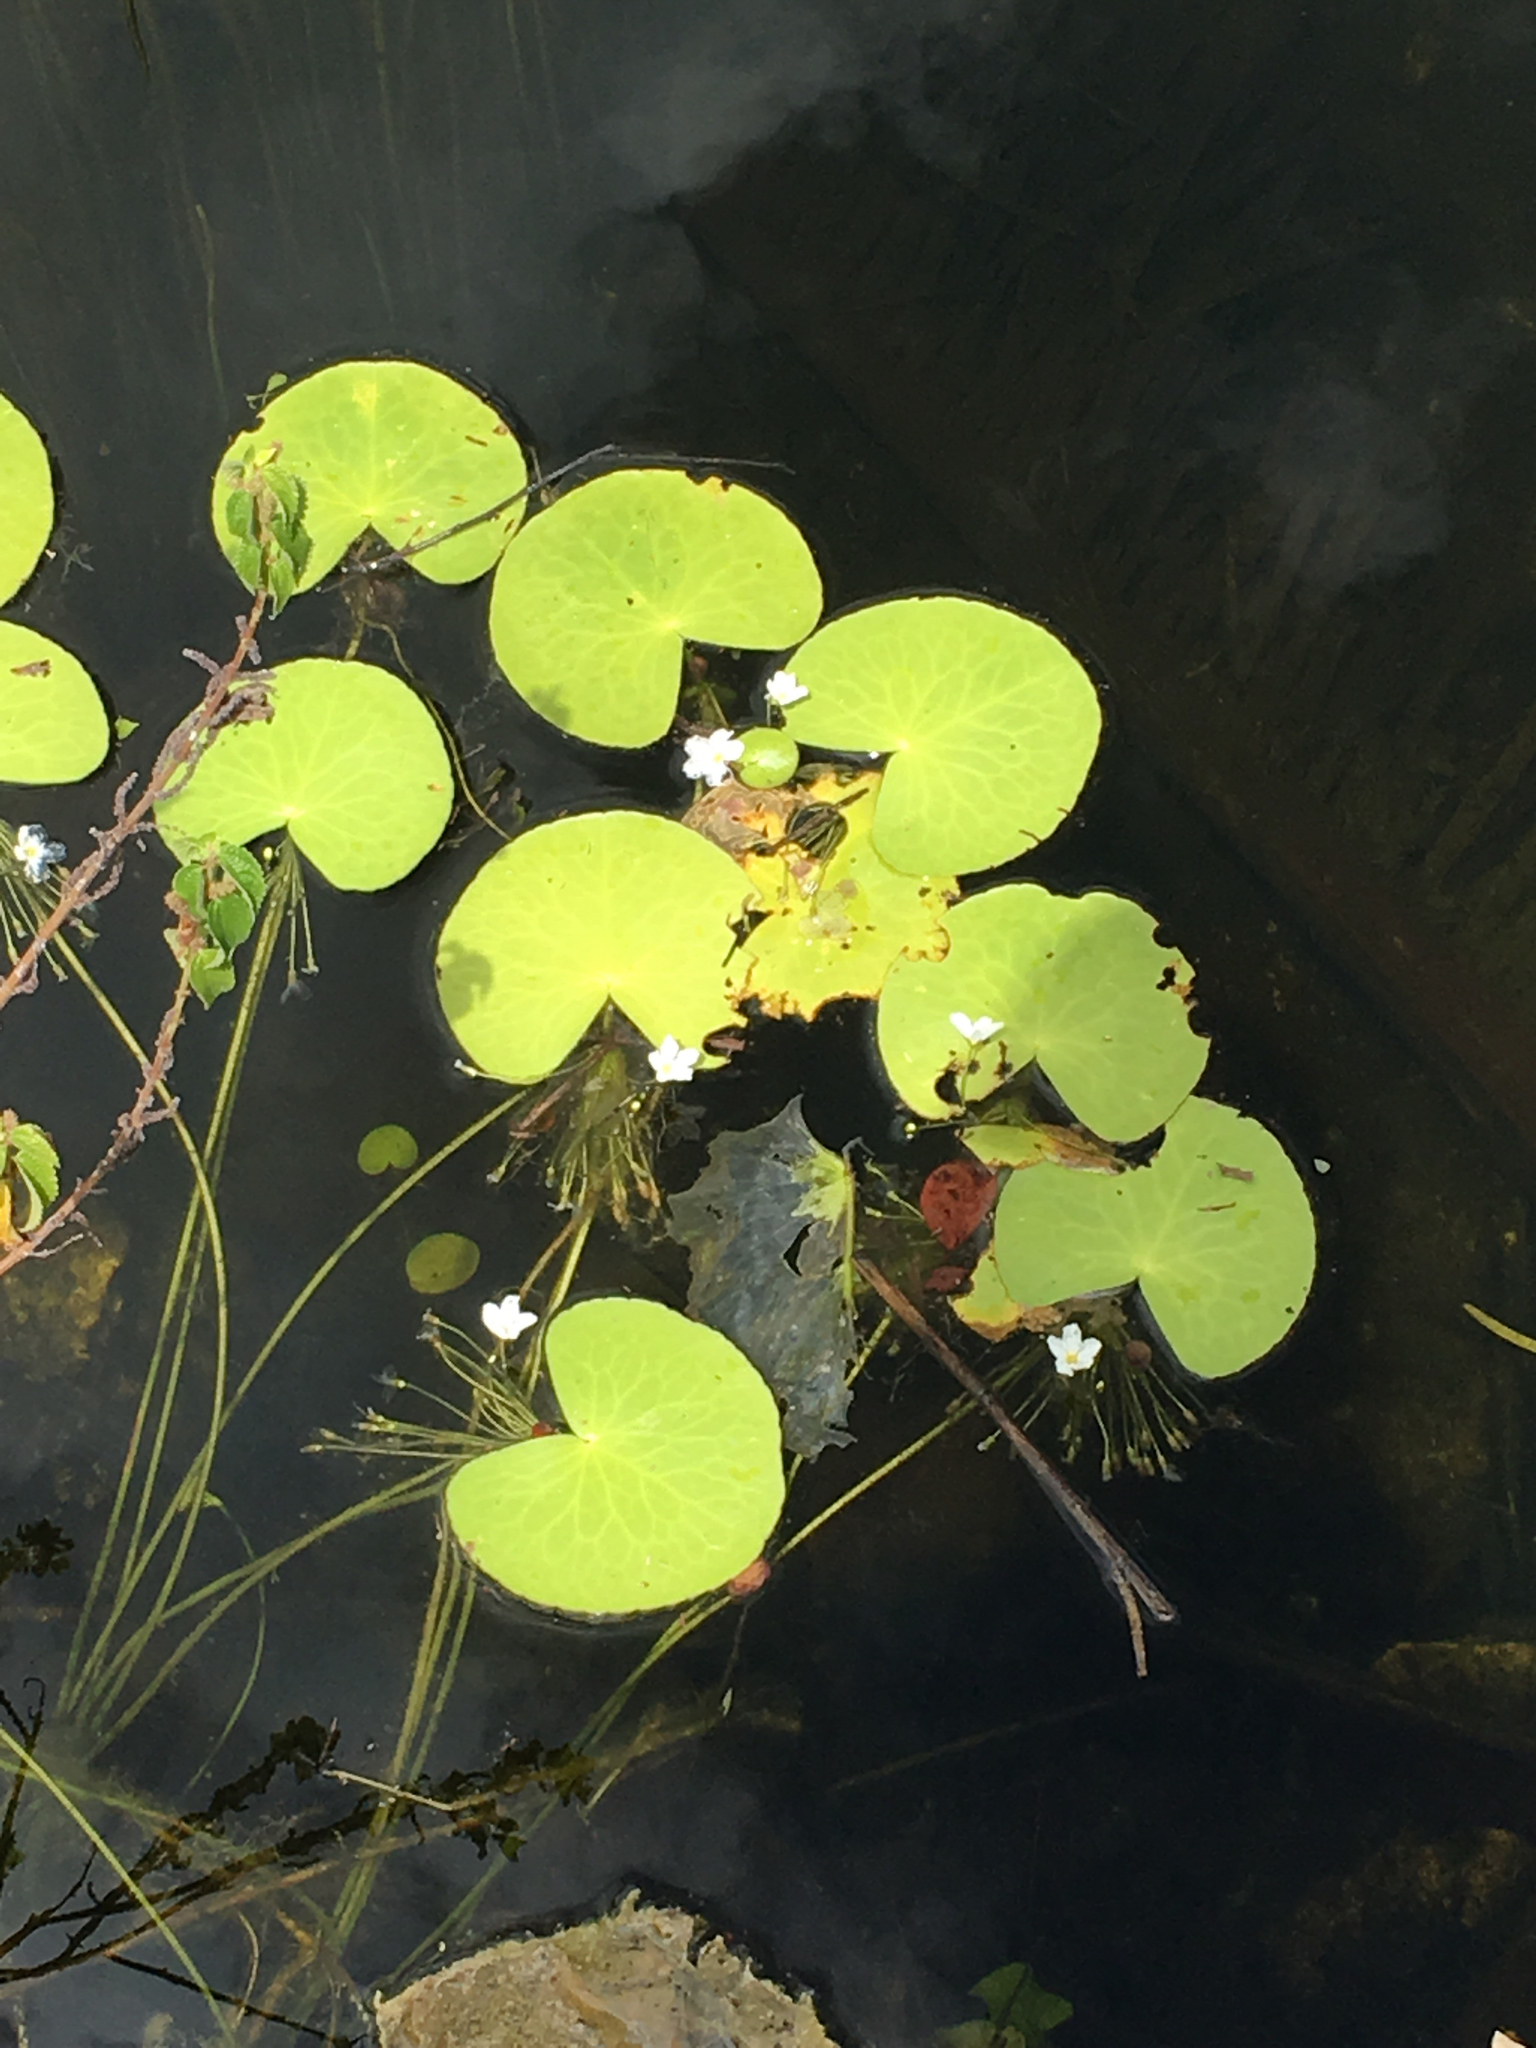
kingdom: Plantae
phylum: Tracheophyta
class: Magnoliopsida
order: Asterales
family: Menyanthaceae
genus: Nymphoides
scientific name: Nymphoides aquatica
